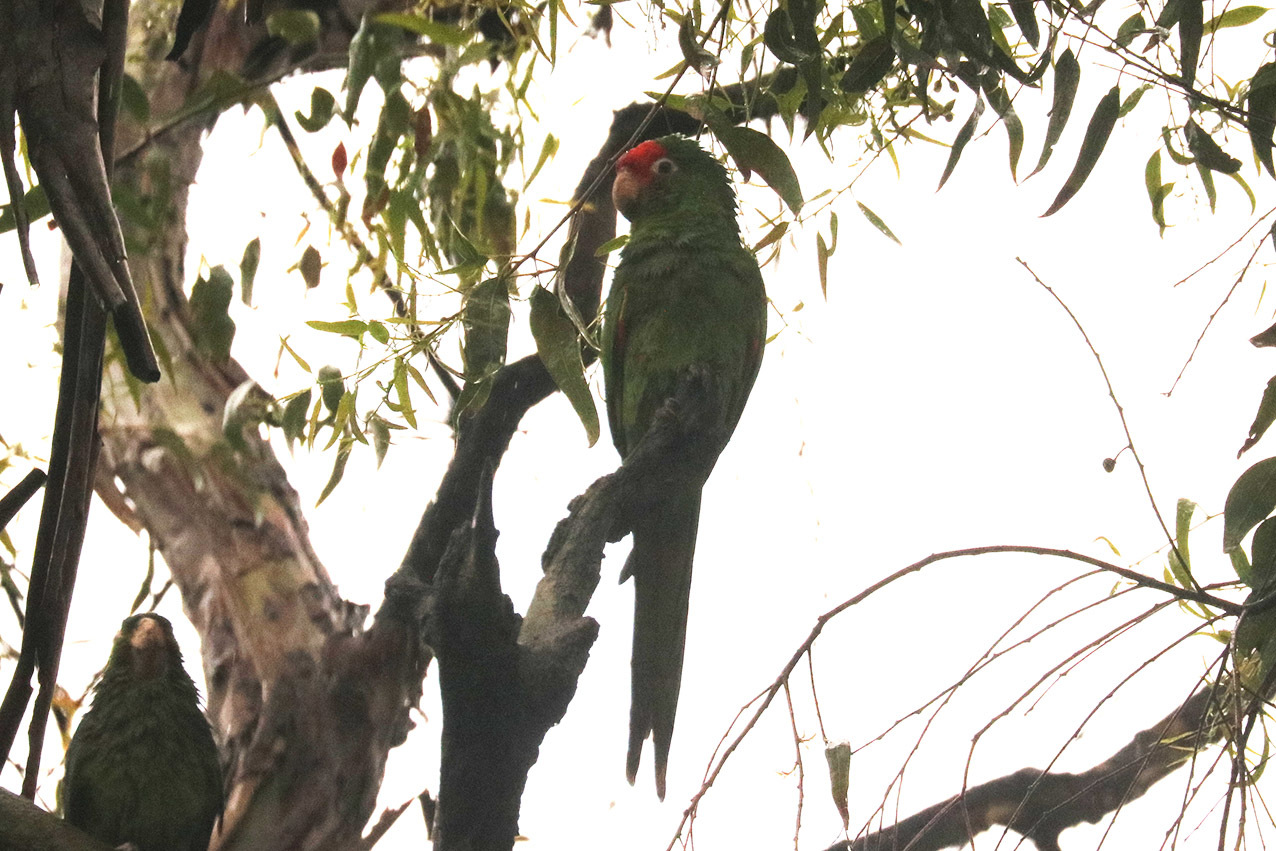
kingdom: Animalia
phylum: Chordata
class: Aves
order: Psittaciformes
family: Psittacidae
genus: Psittacara
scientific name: Psittacara
